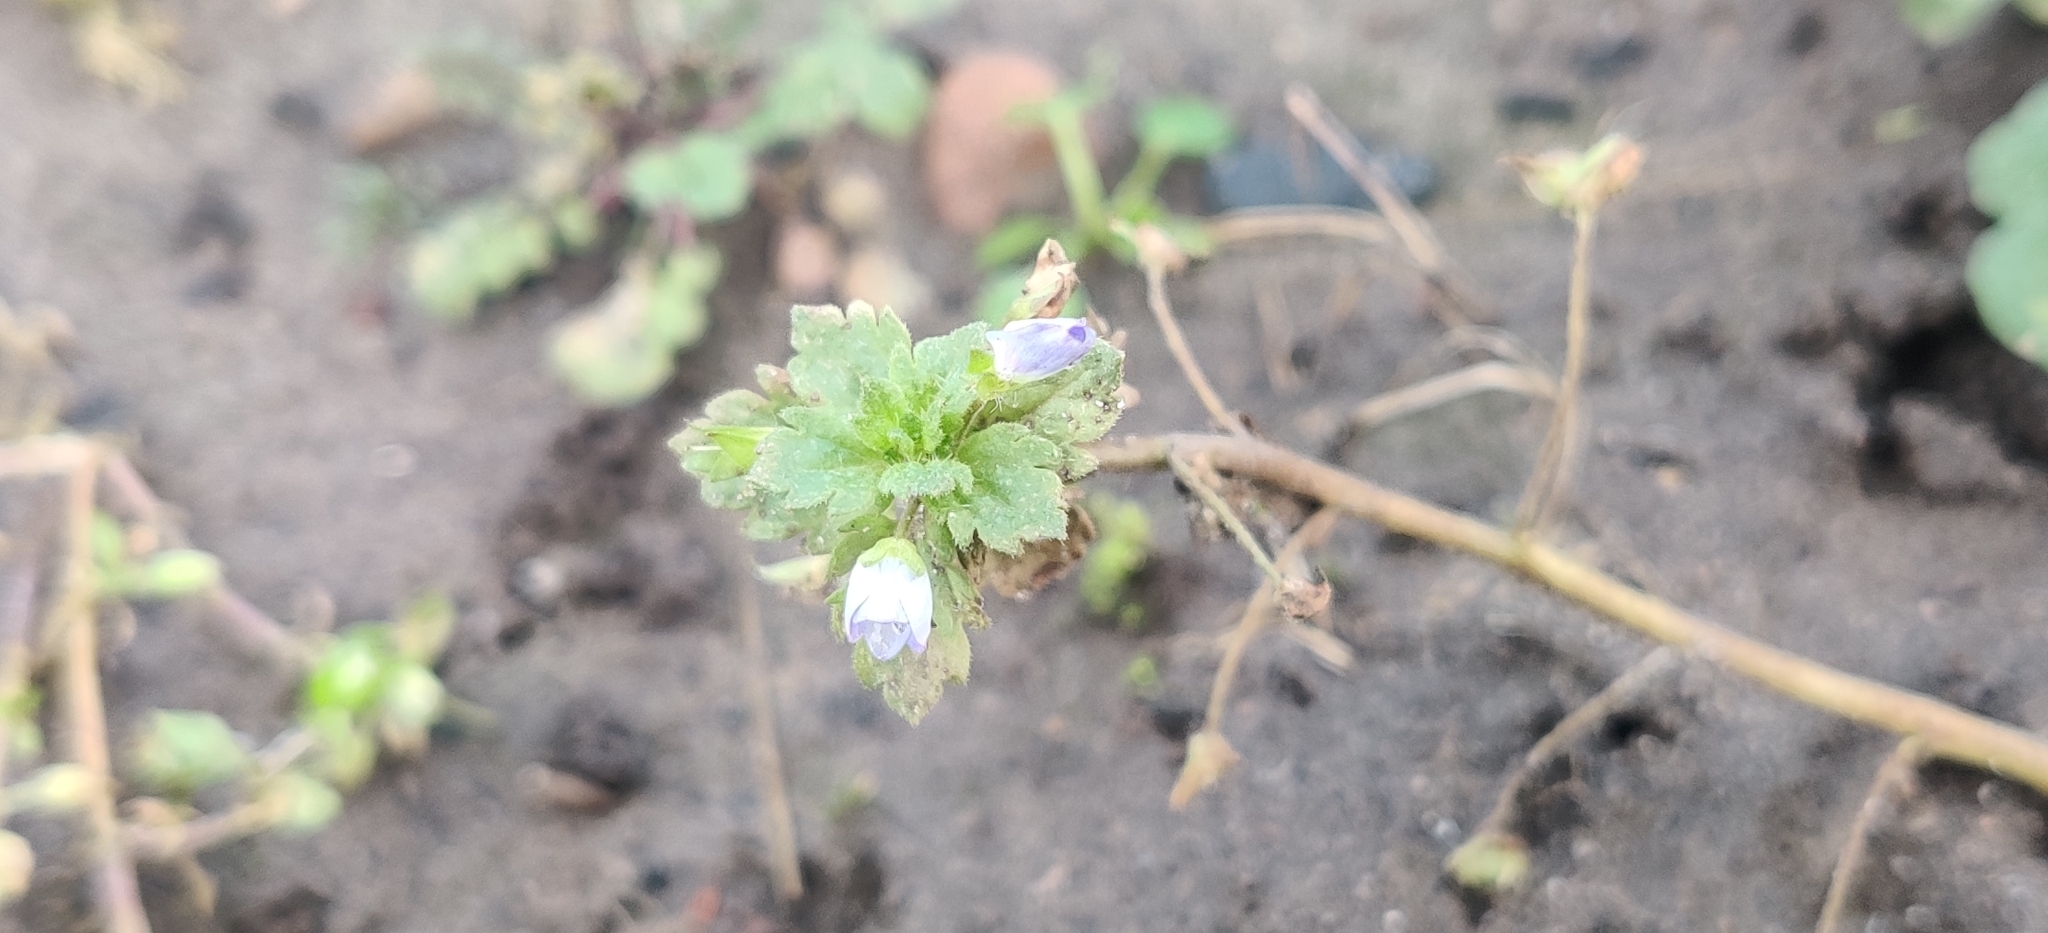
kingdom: Plantae
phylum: Tracheophyta
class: Magnoliopsida
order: Lamiales
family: Plantaginaceae
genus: Veronica
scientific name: Veronica persica
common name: Common field-speedwell
